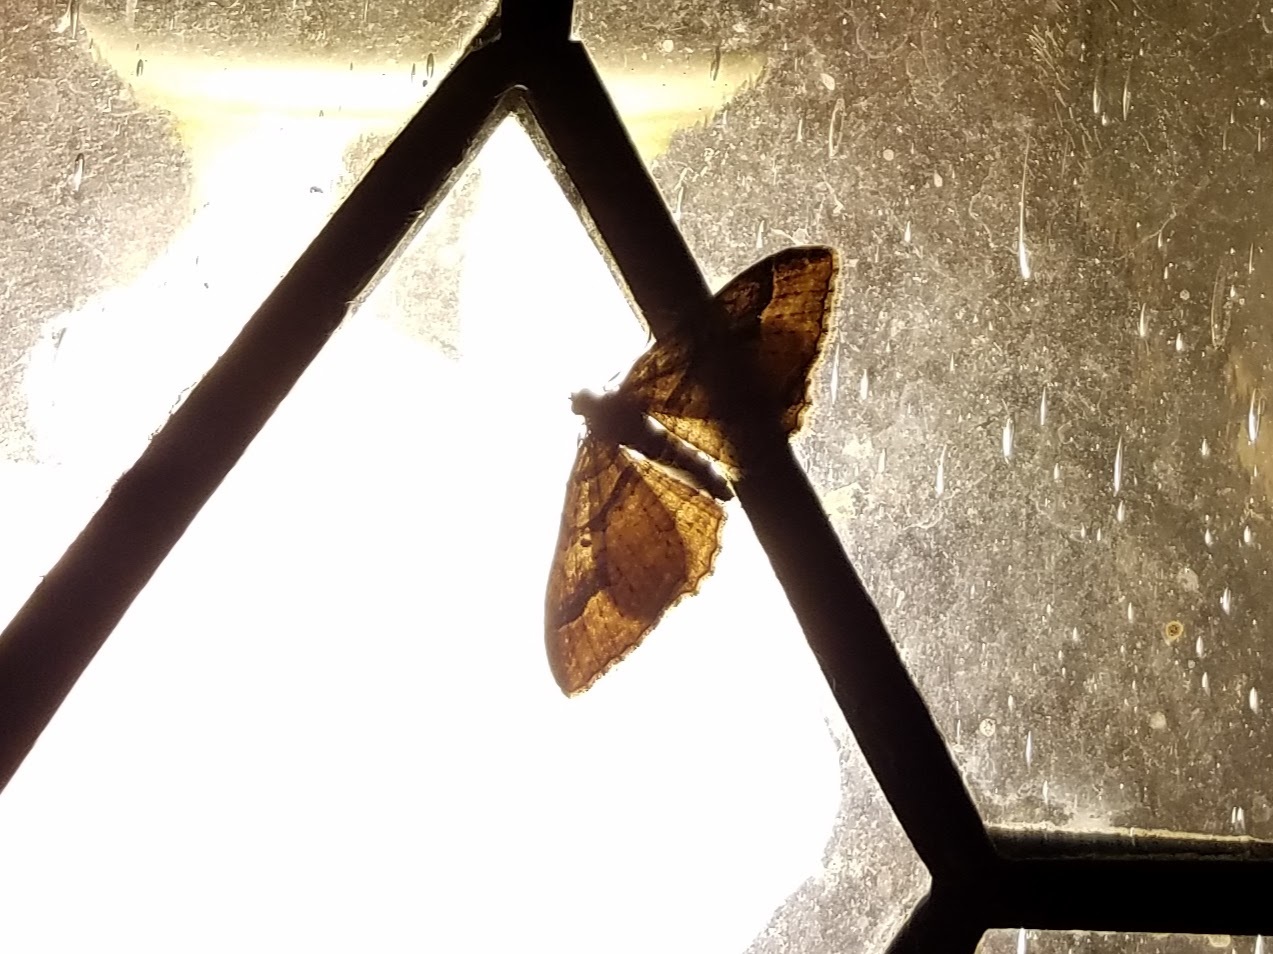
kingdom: Animalia
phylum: Arthropoda
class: Insecta
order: Lepidoptera
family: Geometridae
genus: Costaconvexa
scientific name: Costaconvexa centrostrigaria
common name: Bent-line carpet
